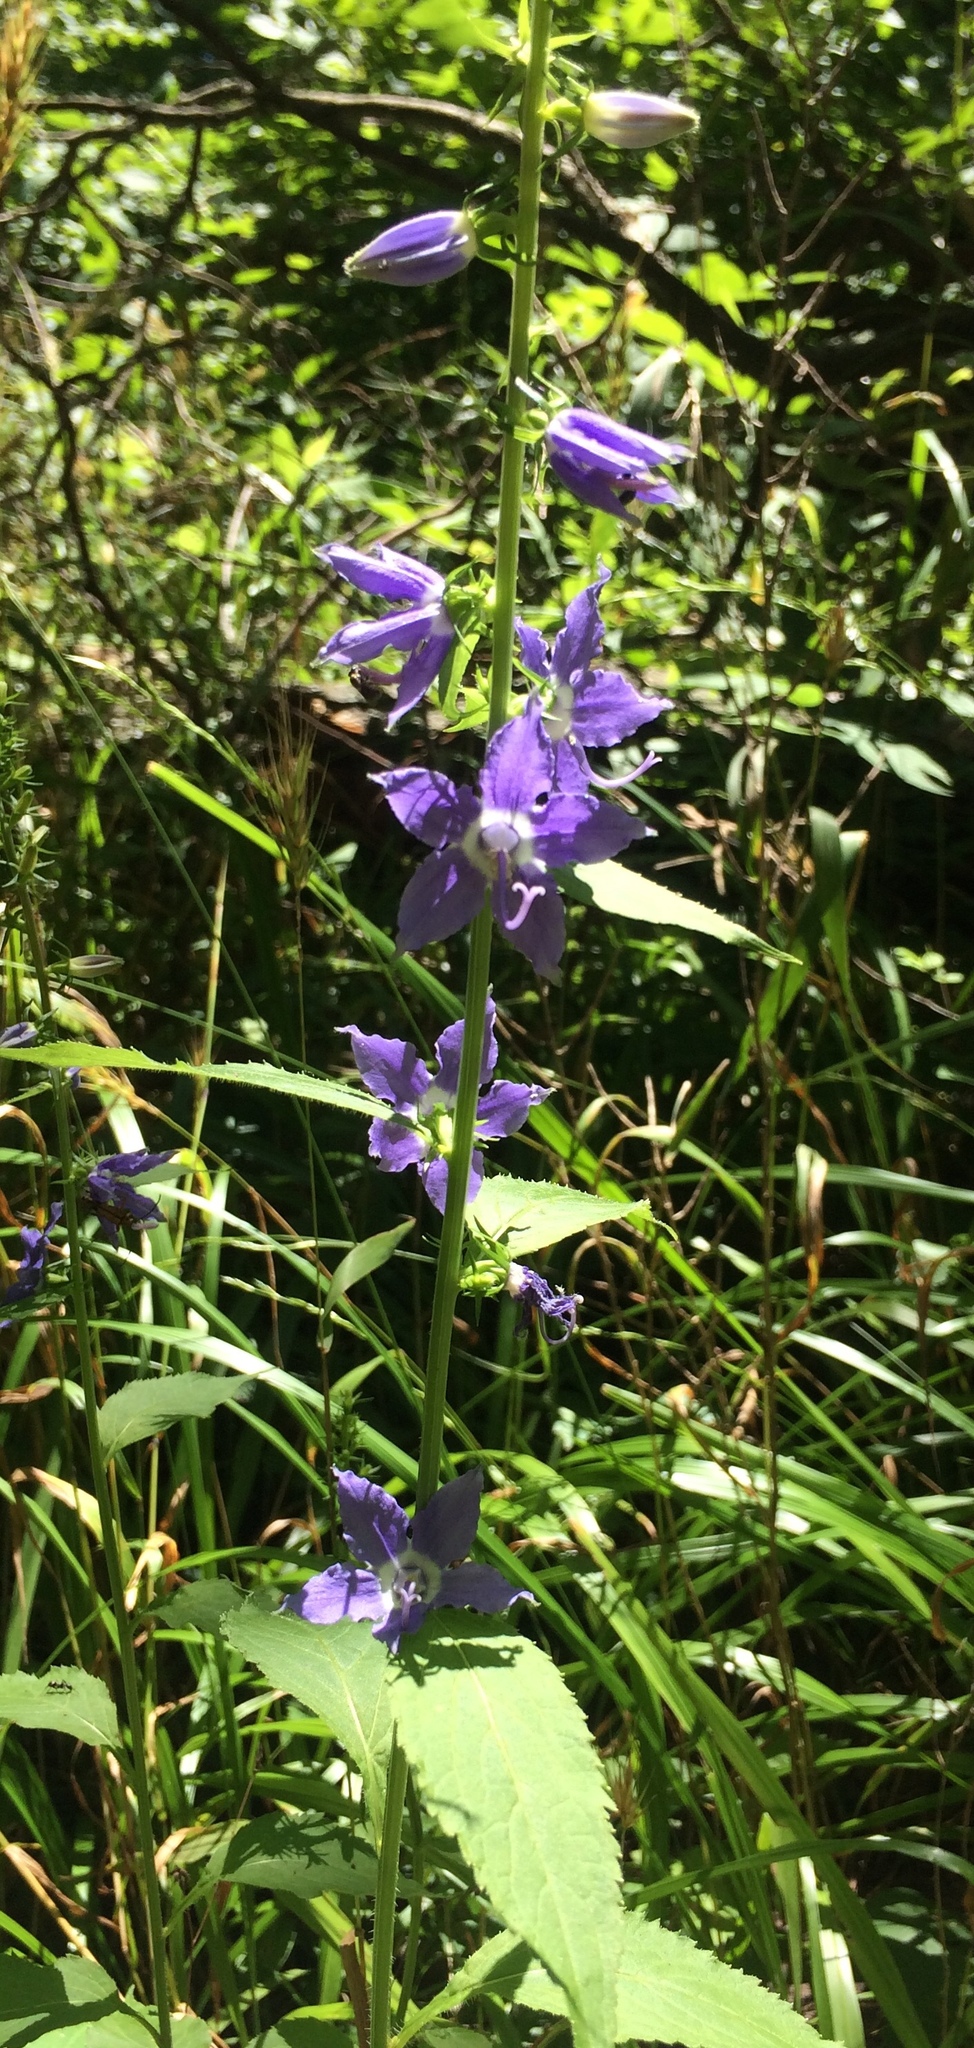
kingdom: Plantae
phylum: Tracheophyta
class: Magnoliopsida
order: Asterales
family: Campanulaceae
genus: Campanulastrum
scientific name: Campanulastrum americanum
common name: American bellflower
